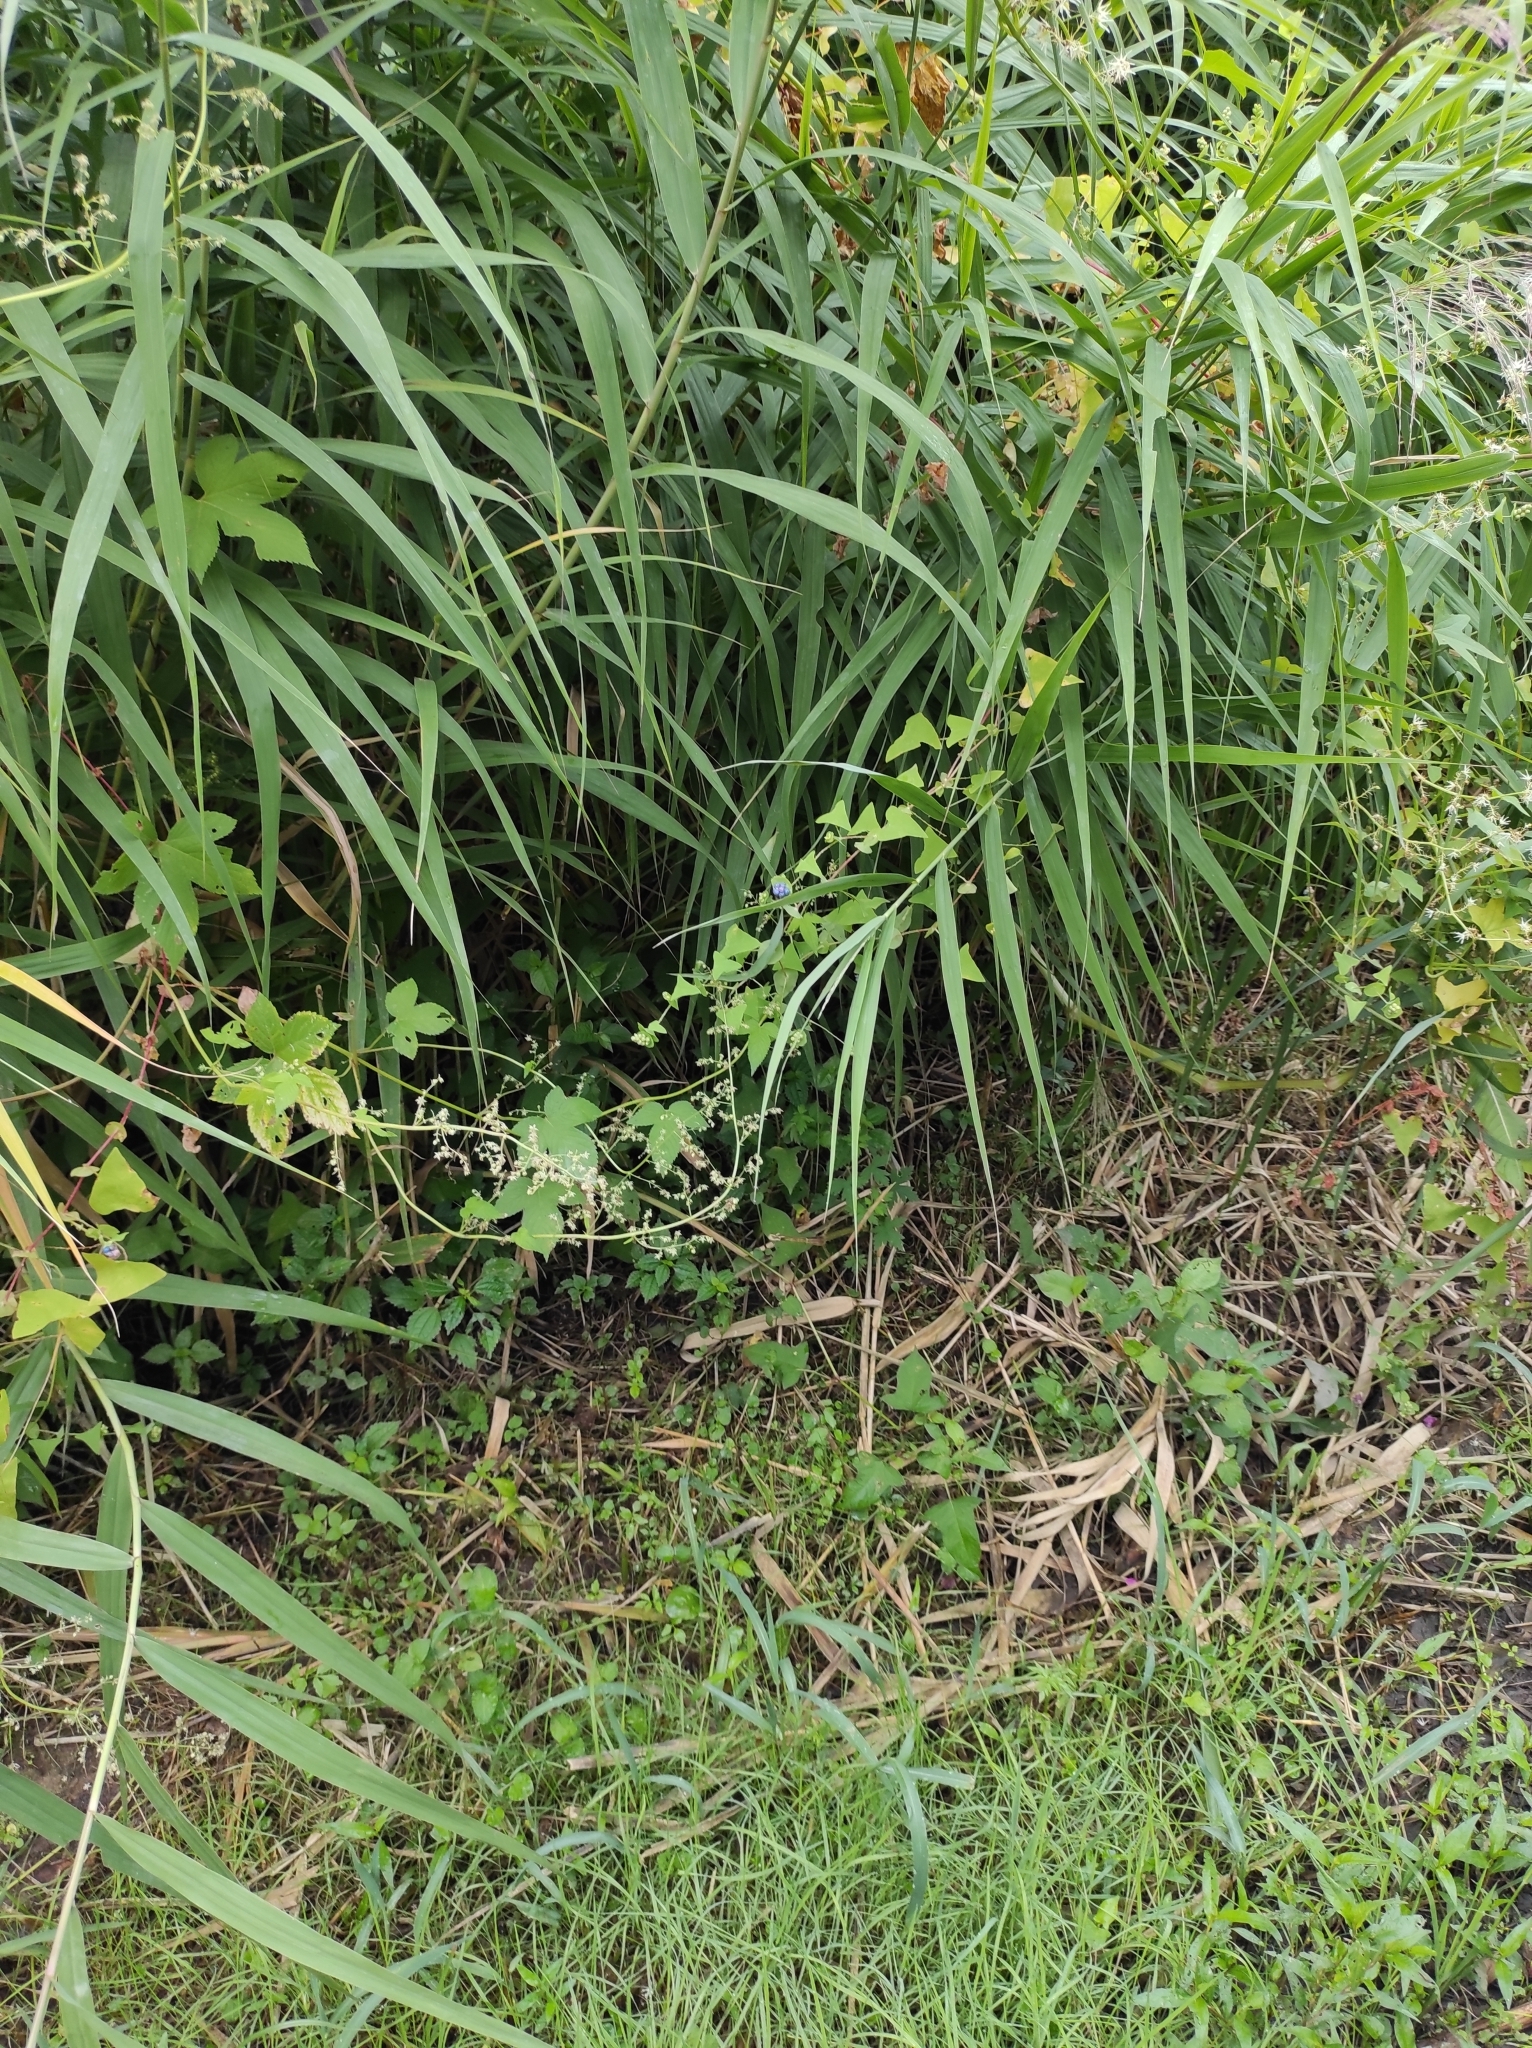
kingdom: Plantae
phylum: Tracheophyta
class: Magnoliopsida
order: Caryophyllales
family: Polygonaceae
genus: Persicaria
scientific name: Persicaria perfoliata
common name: Asiatic tearthumb
